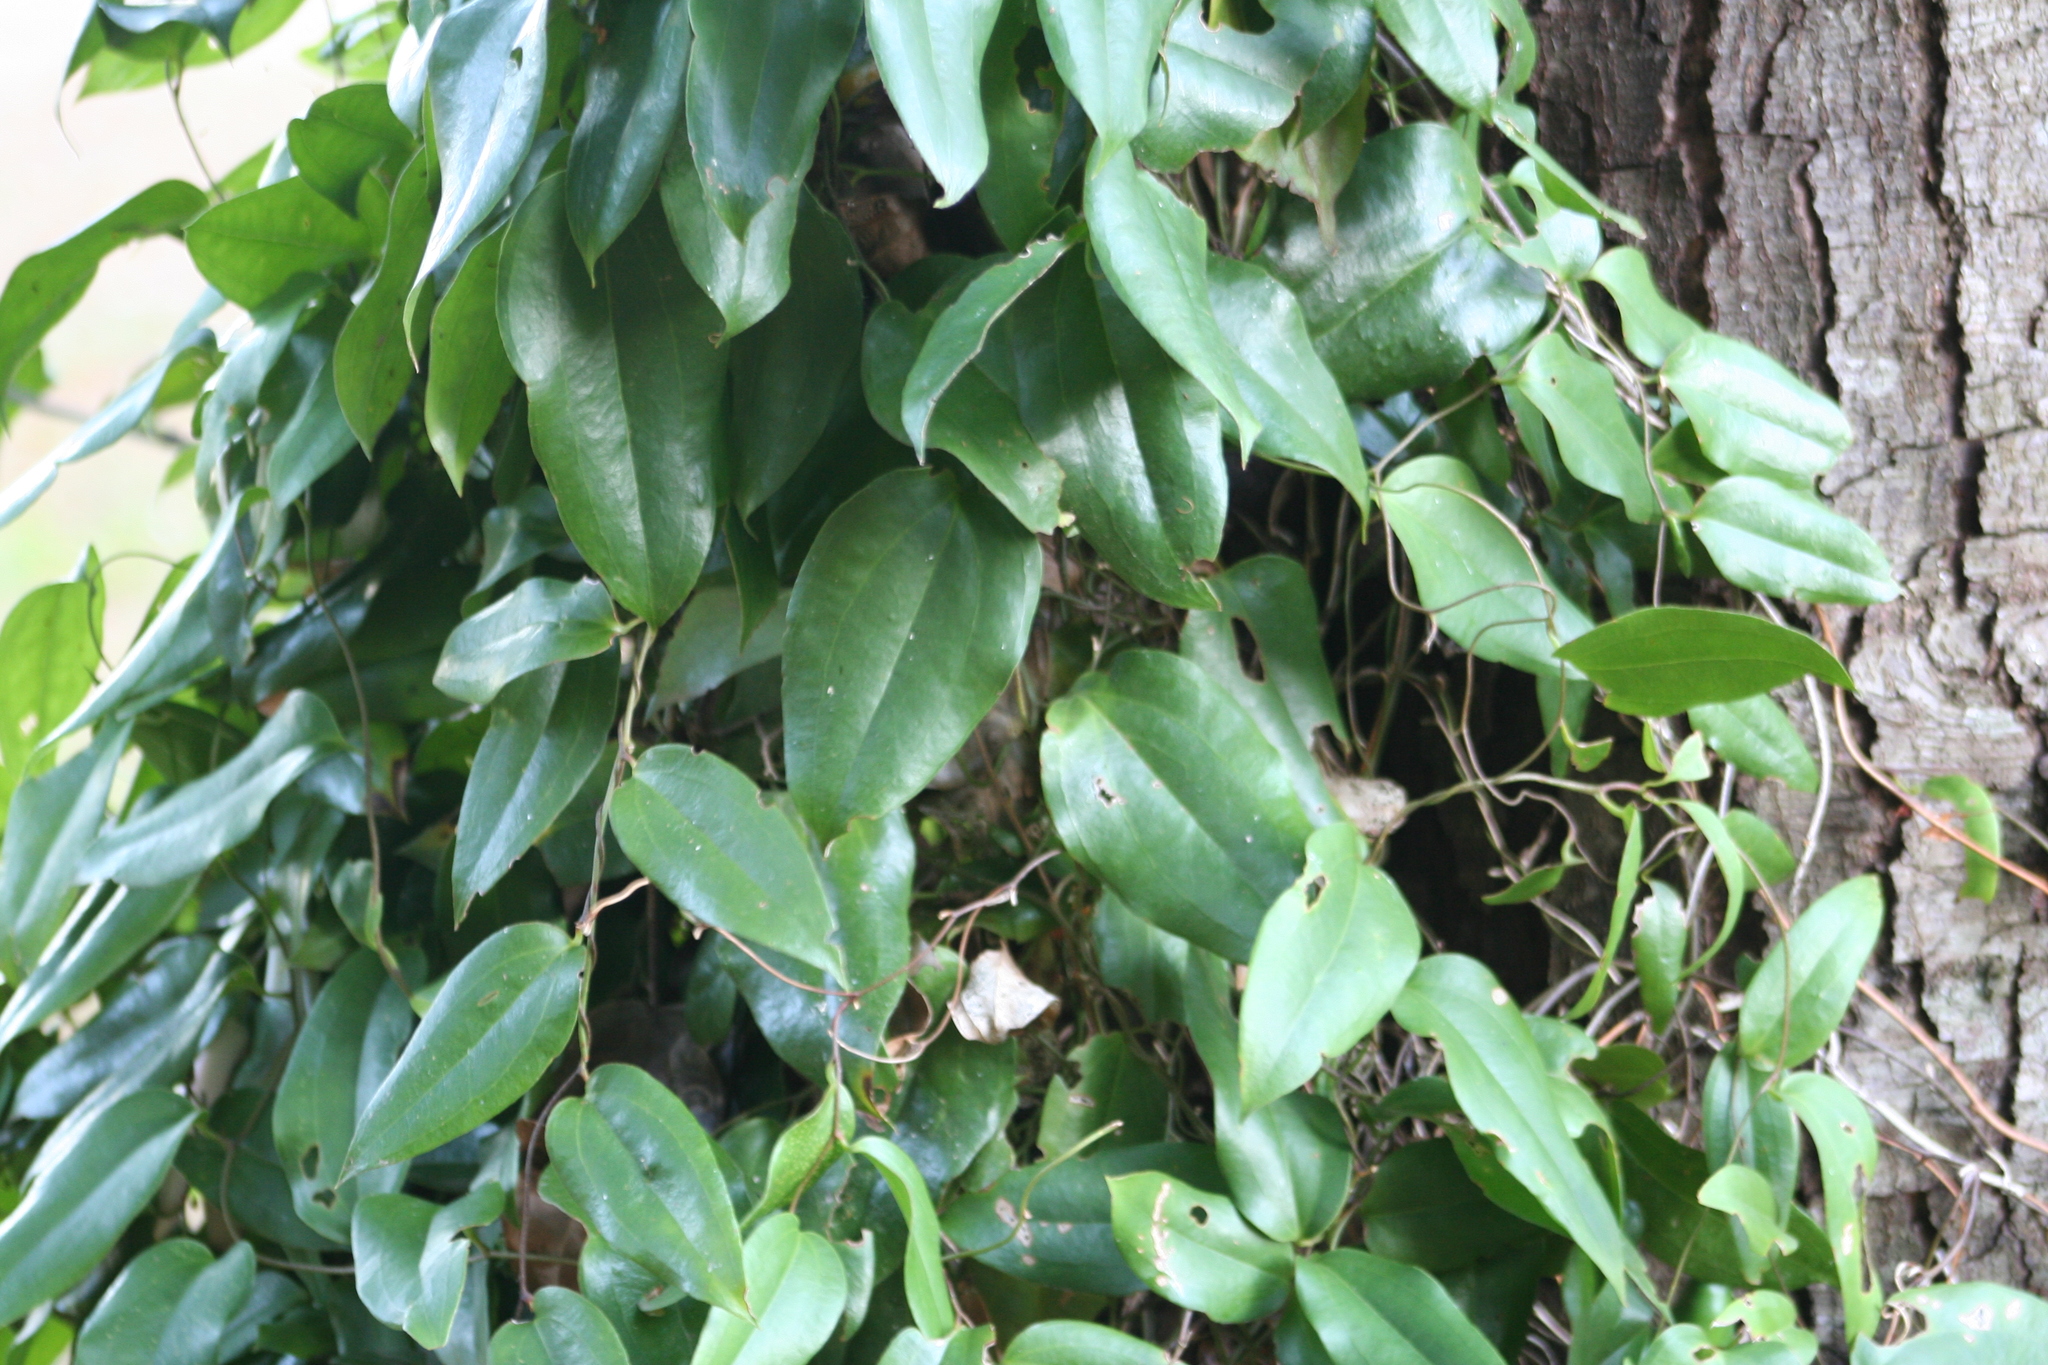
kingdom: Plantae
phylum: Tracheophyta
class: Liliopsida
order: Liliales
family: Philesiaceae
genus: Lapageria
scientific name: Lapageria rosea
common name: Chilean-bellflower
